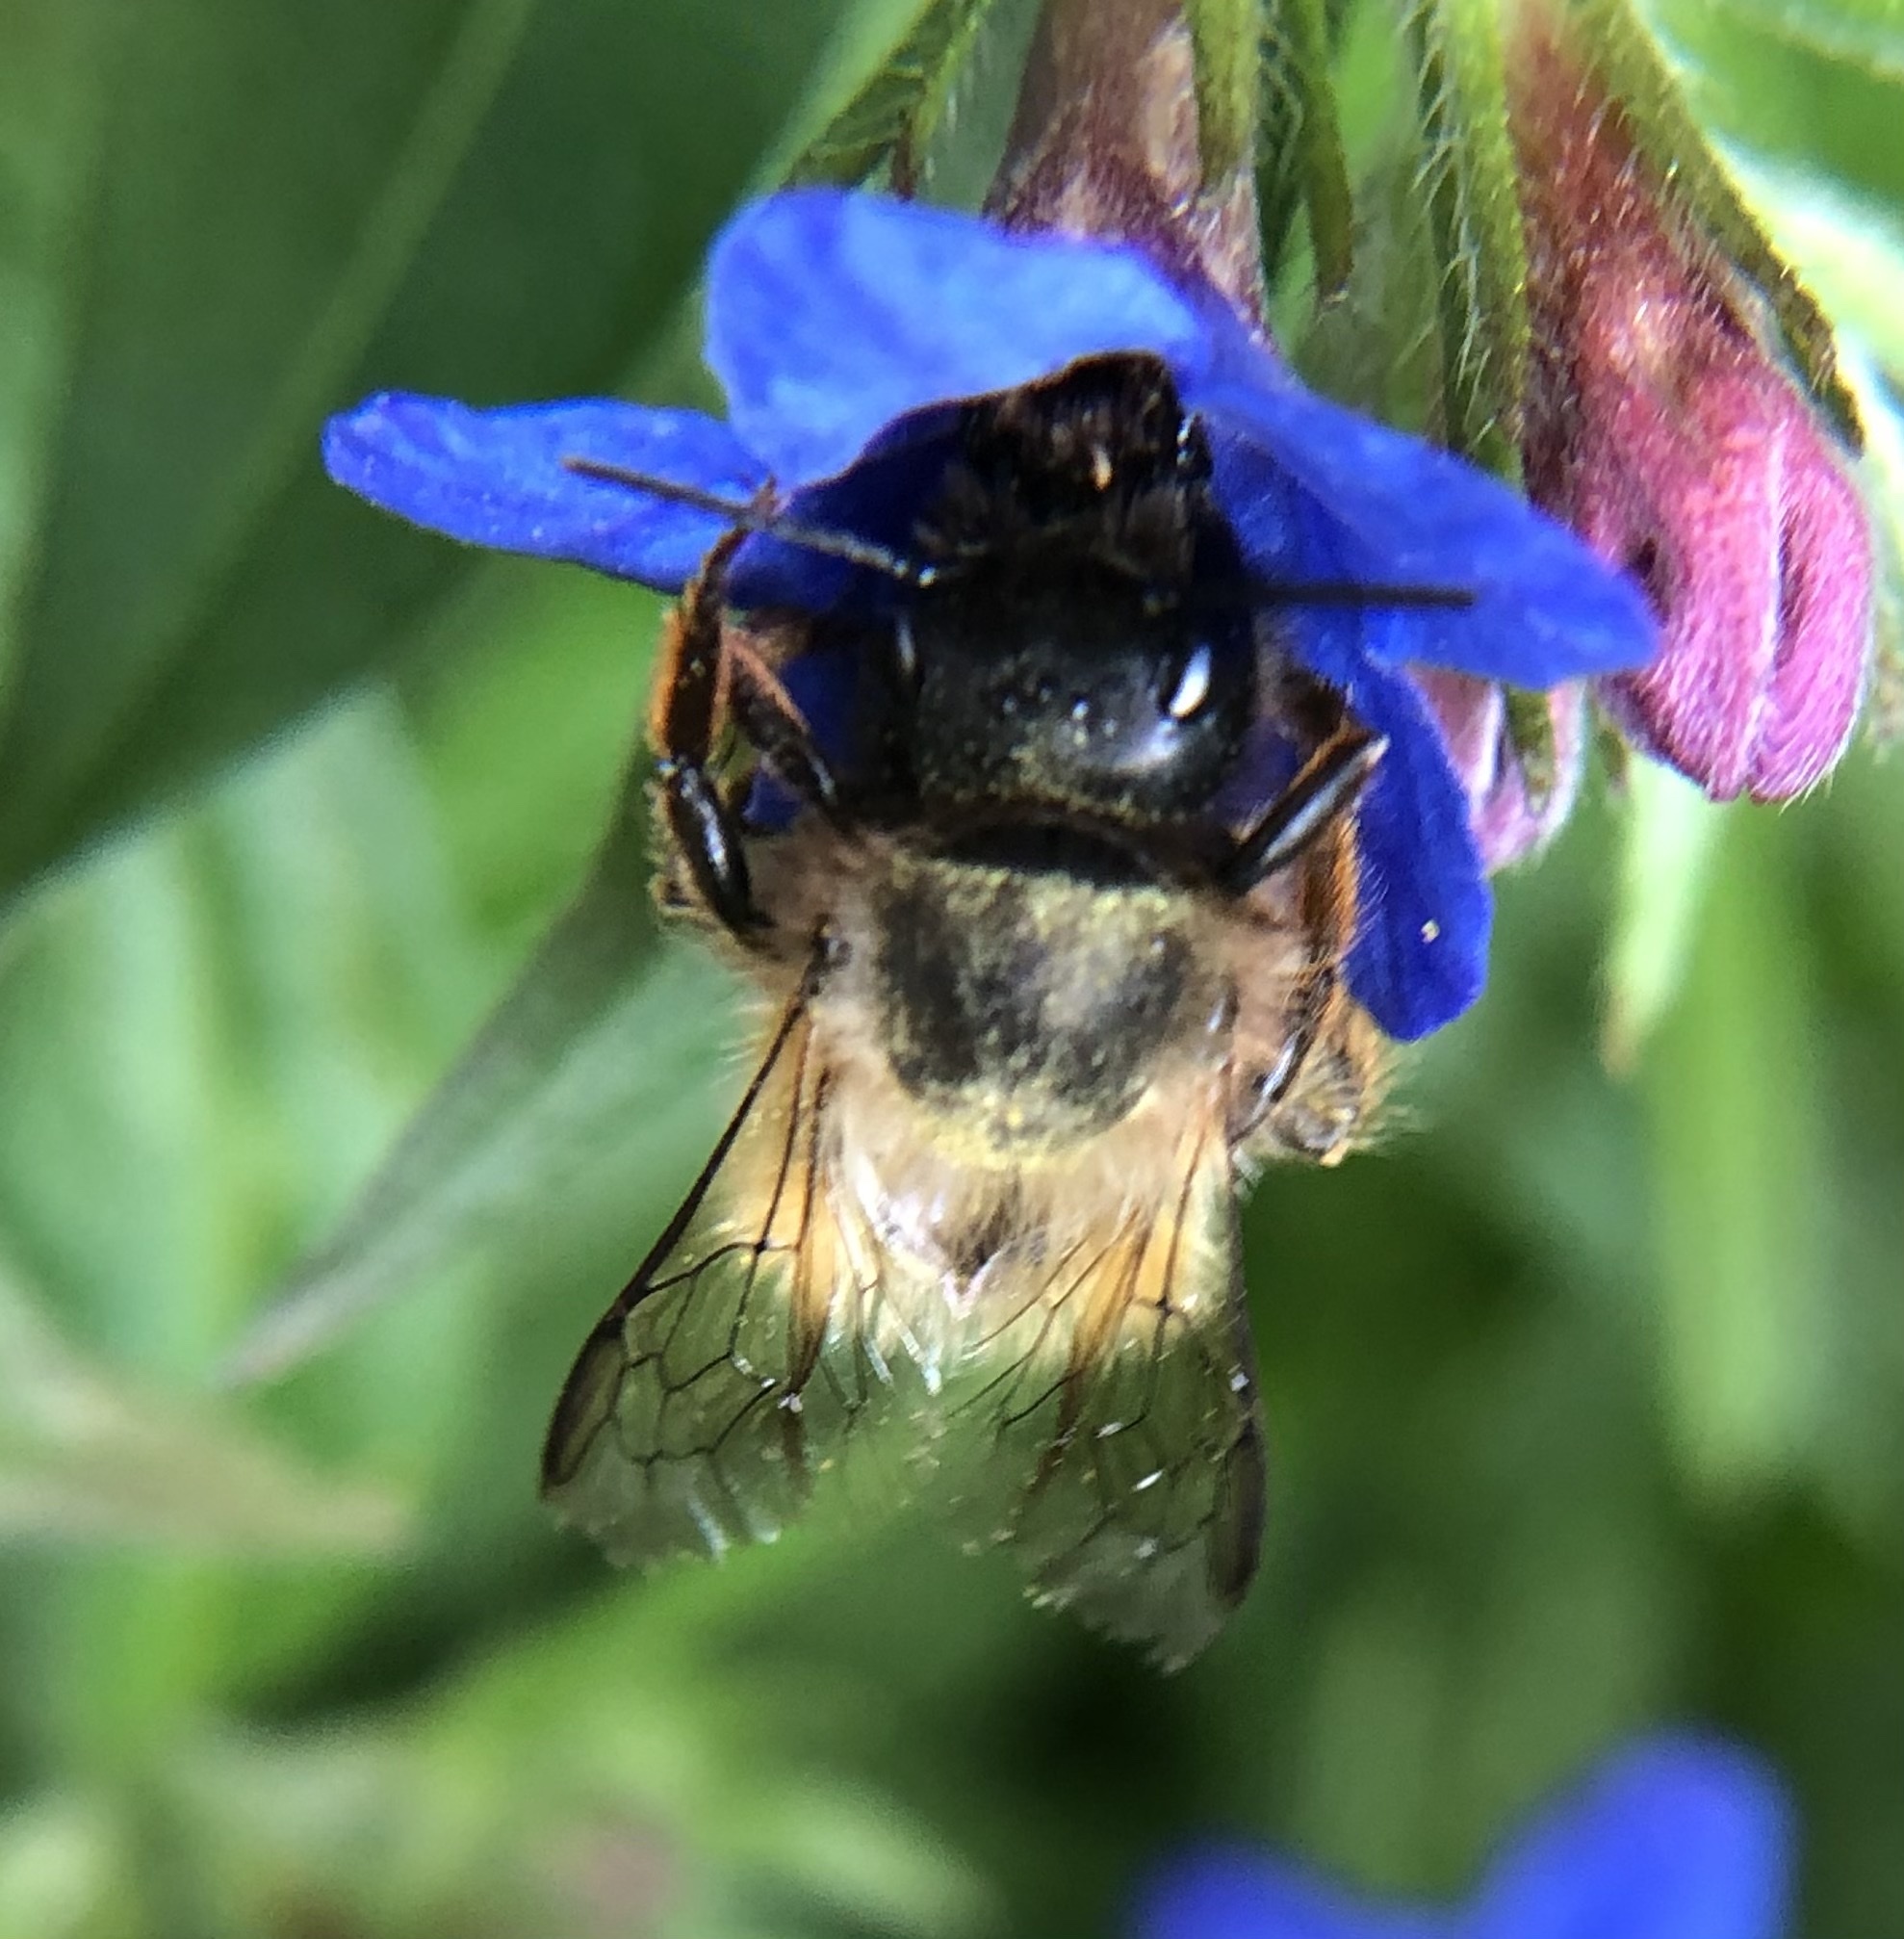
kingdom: Animalia
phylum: Arthropoda
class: Insecta
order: Hymenoptera
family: Megachilidae
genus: Osmia
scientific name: Osmia bicornis
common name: Red mason bee
